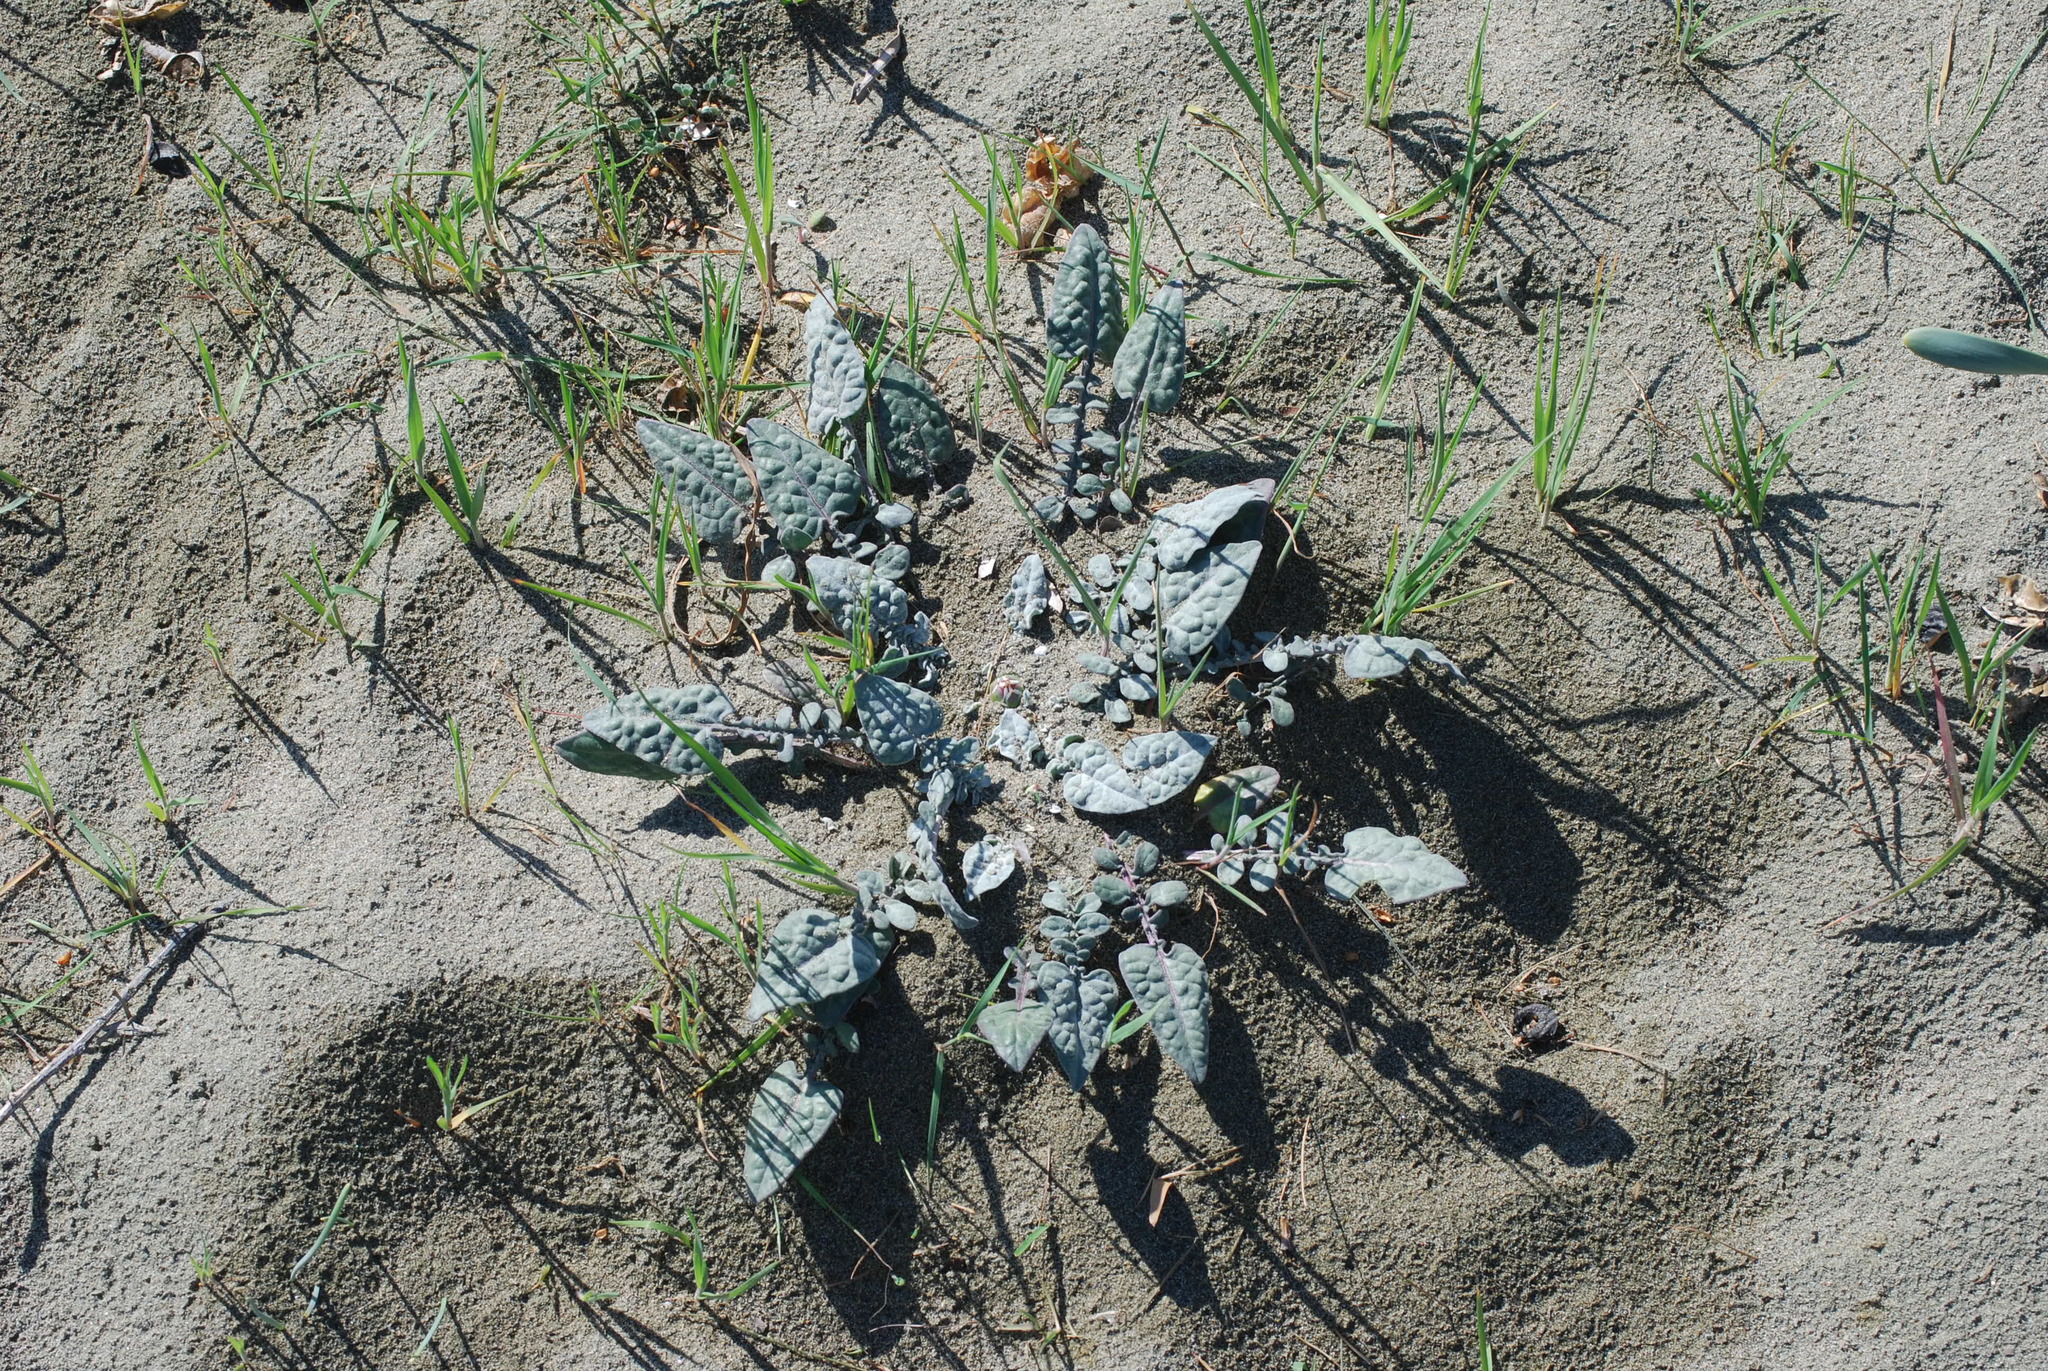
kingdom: Plantae
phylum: Tracheophyta
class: Magnoliopsida
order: Asterales
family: Asteraceae
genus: Crocodilium
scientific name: Crocodilium creticum
